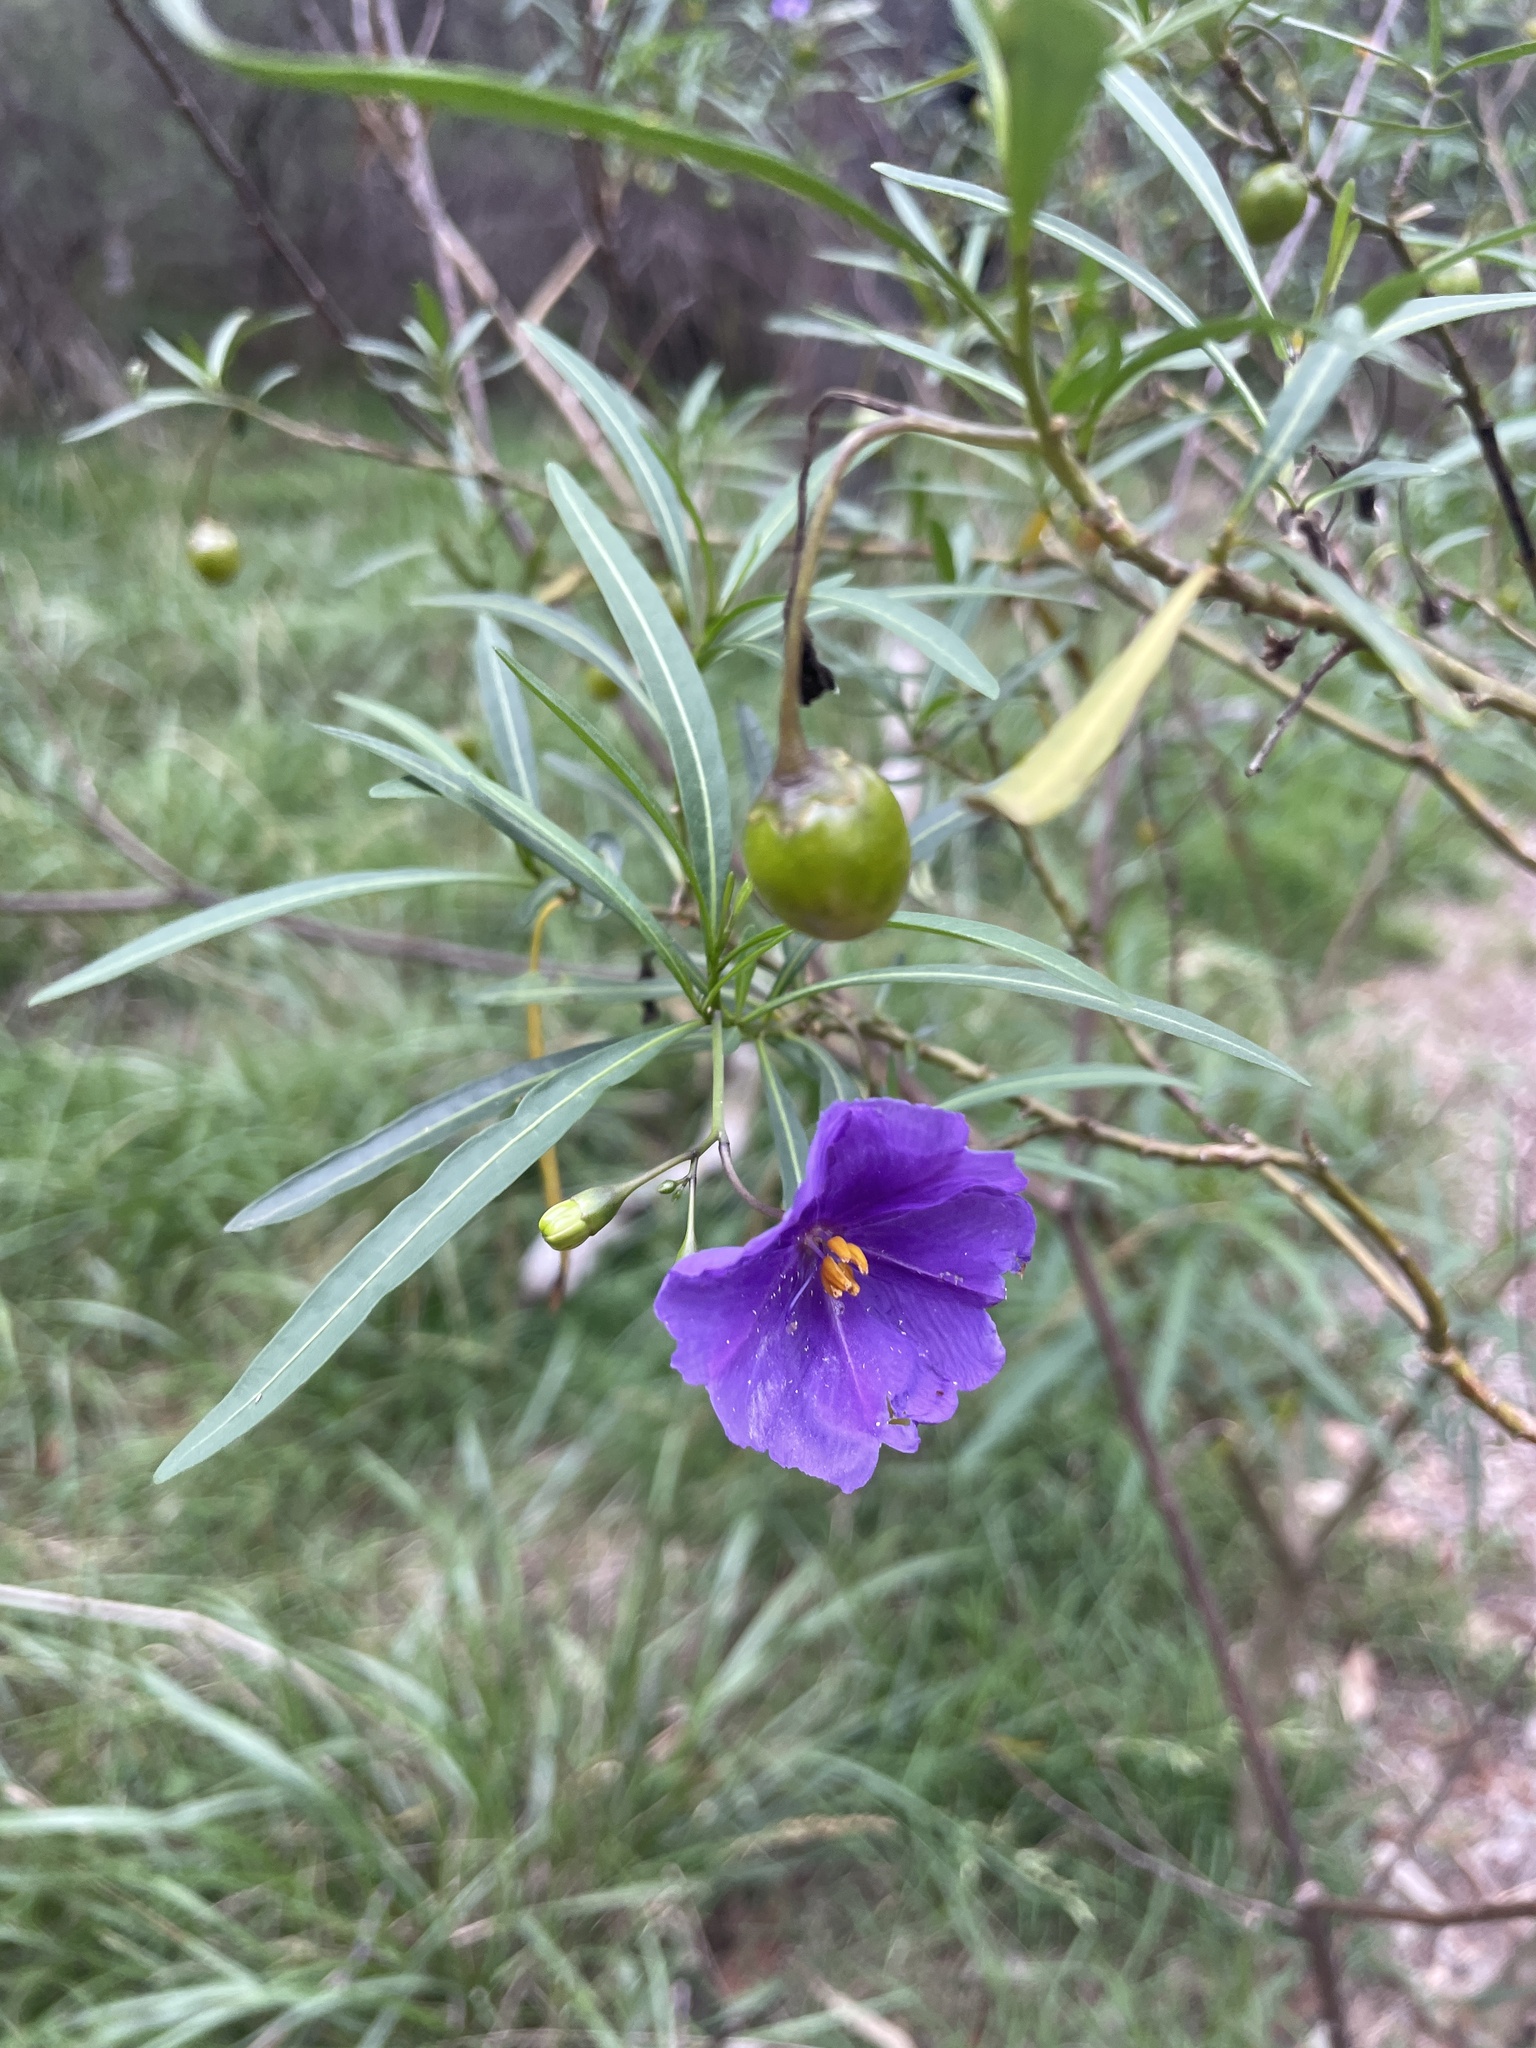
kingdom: Plantae
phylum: Tracheophyta
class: Magnoliopsida
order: Solanales
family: Solanaceae
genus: Solanum
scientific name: Solanum linearifolium
